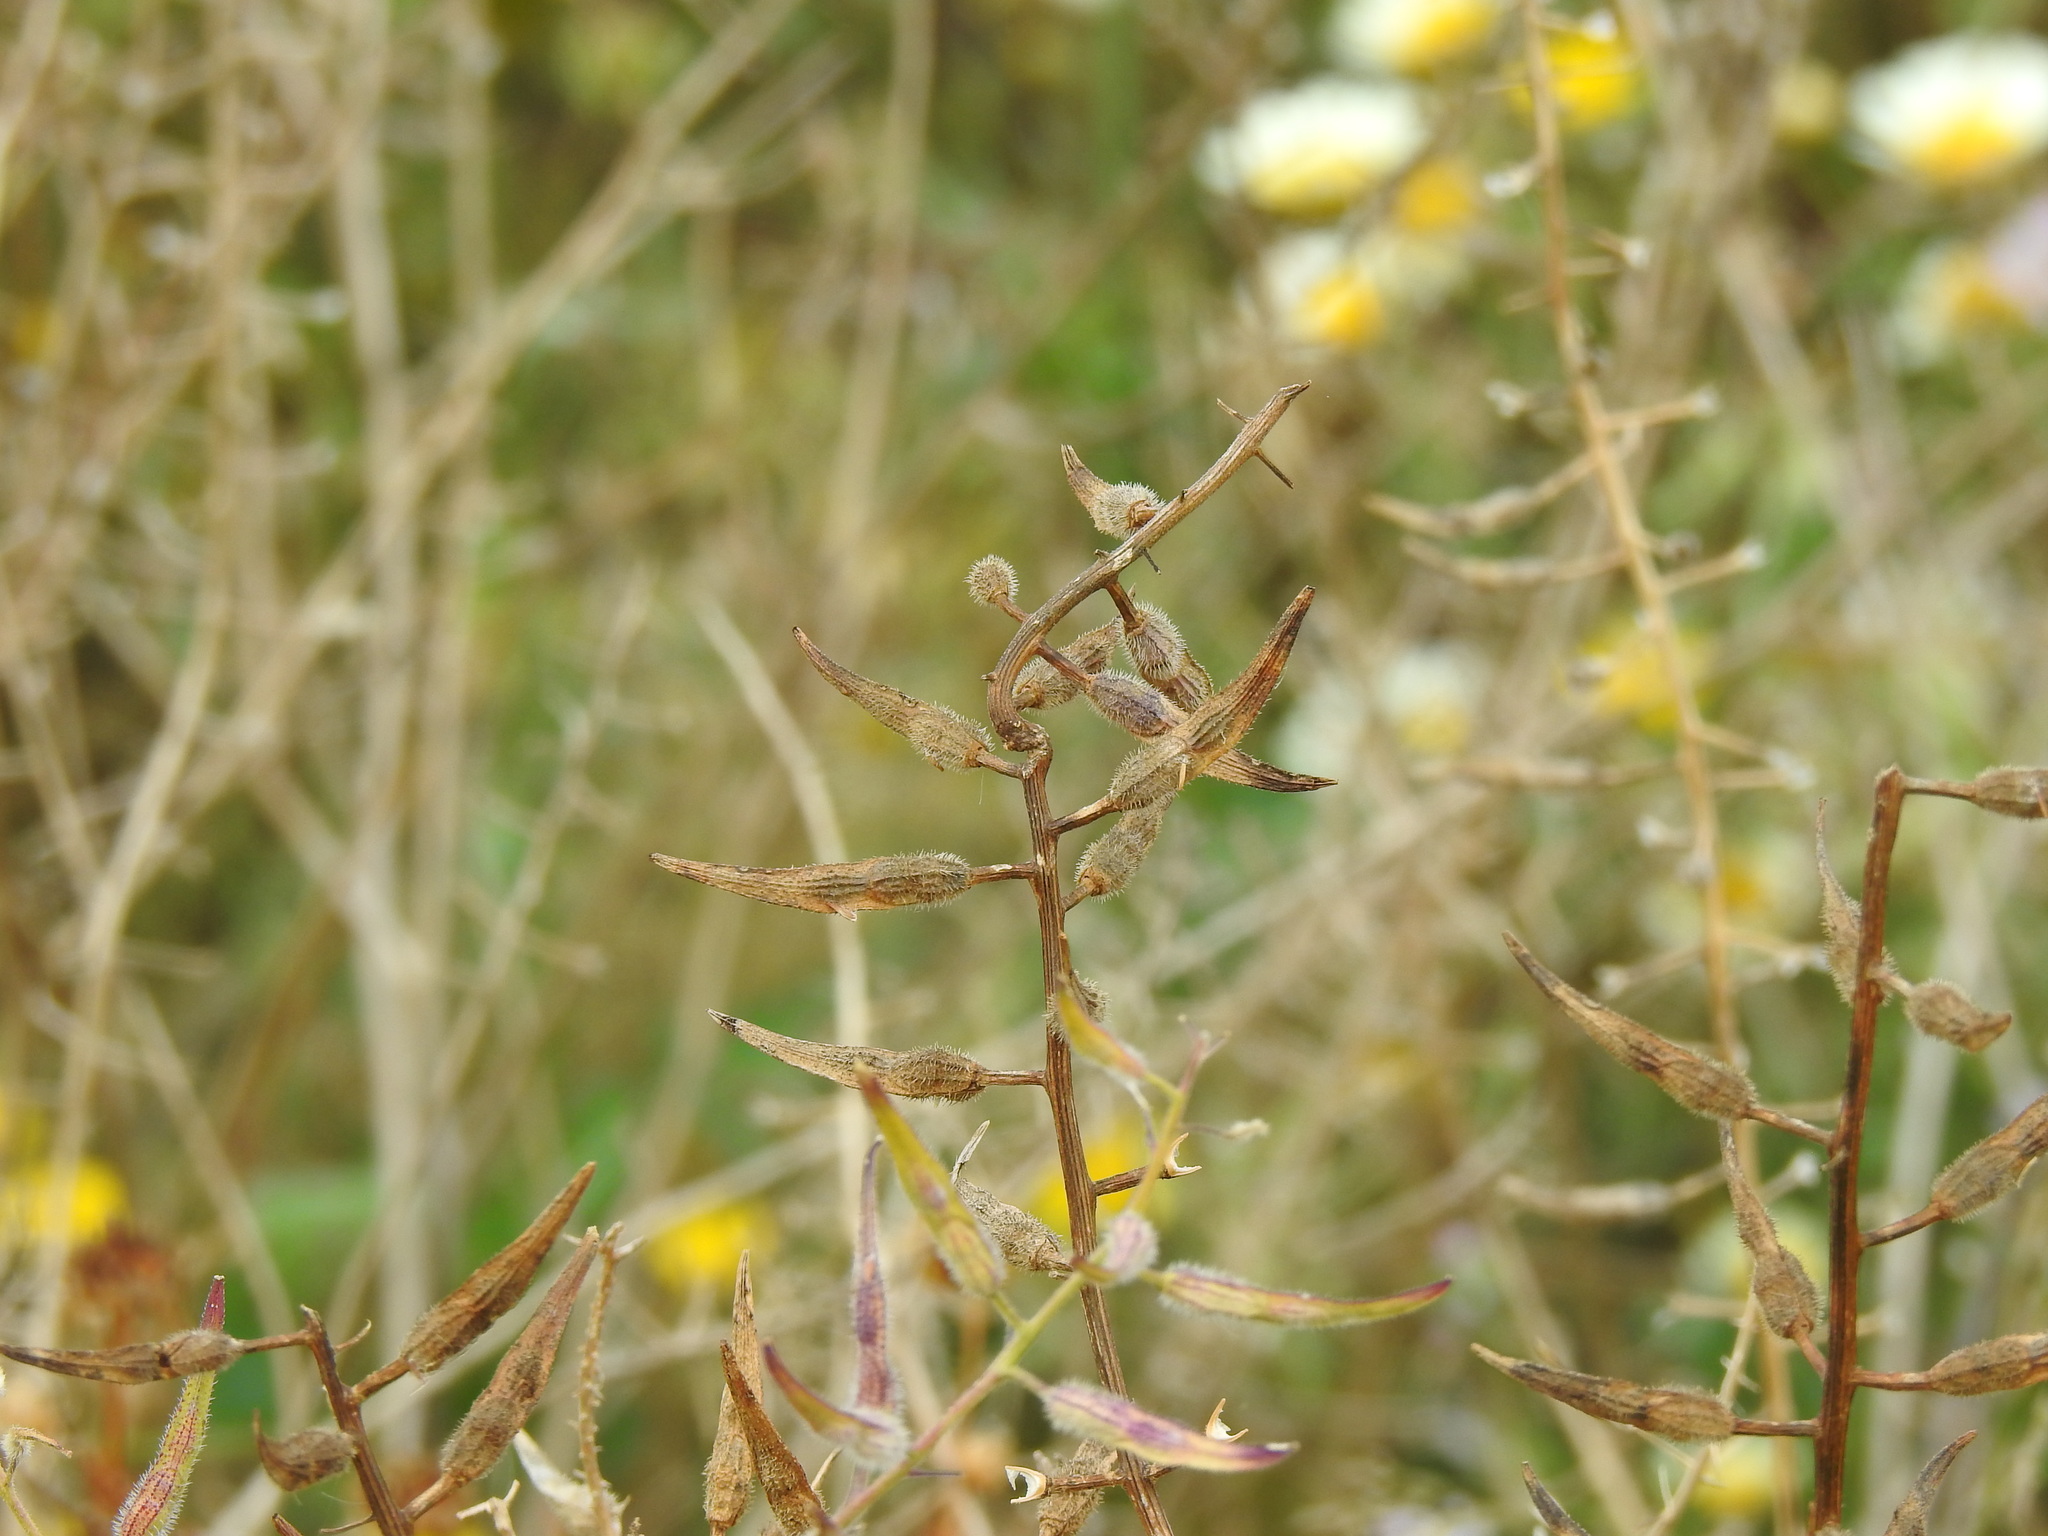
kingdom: Plantae
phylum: Tracheophyta
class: Magnoliopsida
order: Brassicales
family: Brassicaceae
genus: Sinapis
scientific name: Sinapis alba
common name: White mustard
